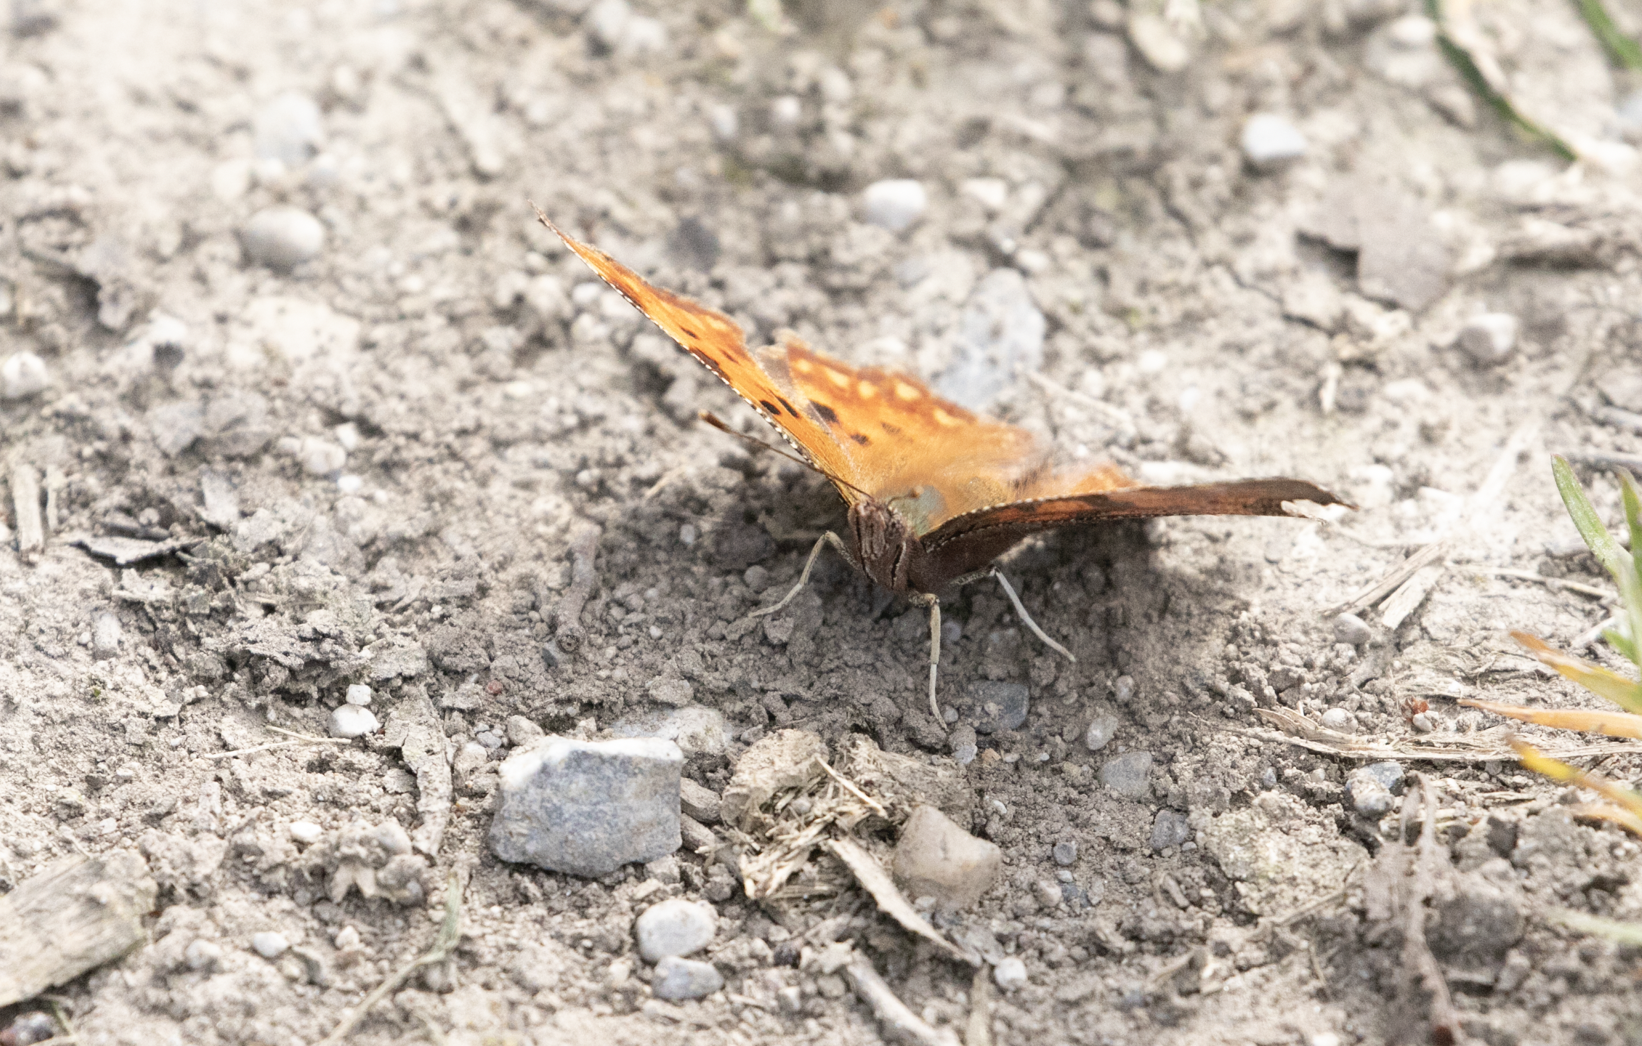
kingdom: Animalia
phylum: Arthropoda
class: Insecta
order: Lepidoptera
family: Nymphalidae
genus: Polygonia
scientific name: Polygonia c-album
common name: Comma
